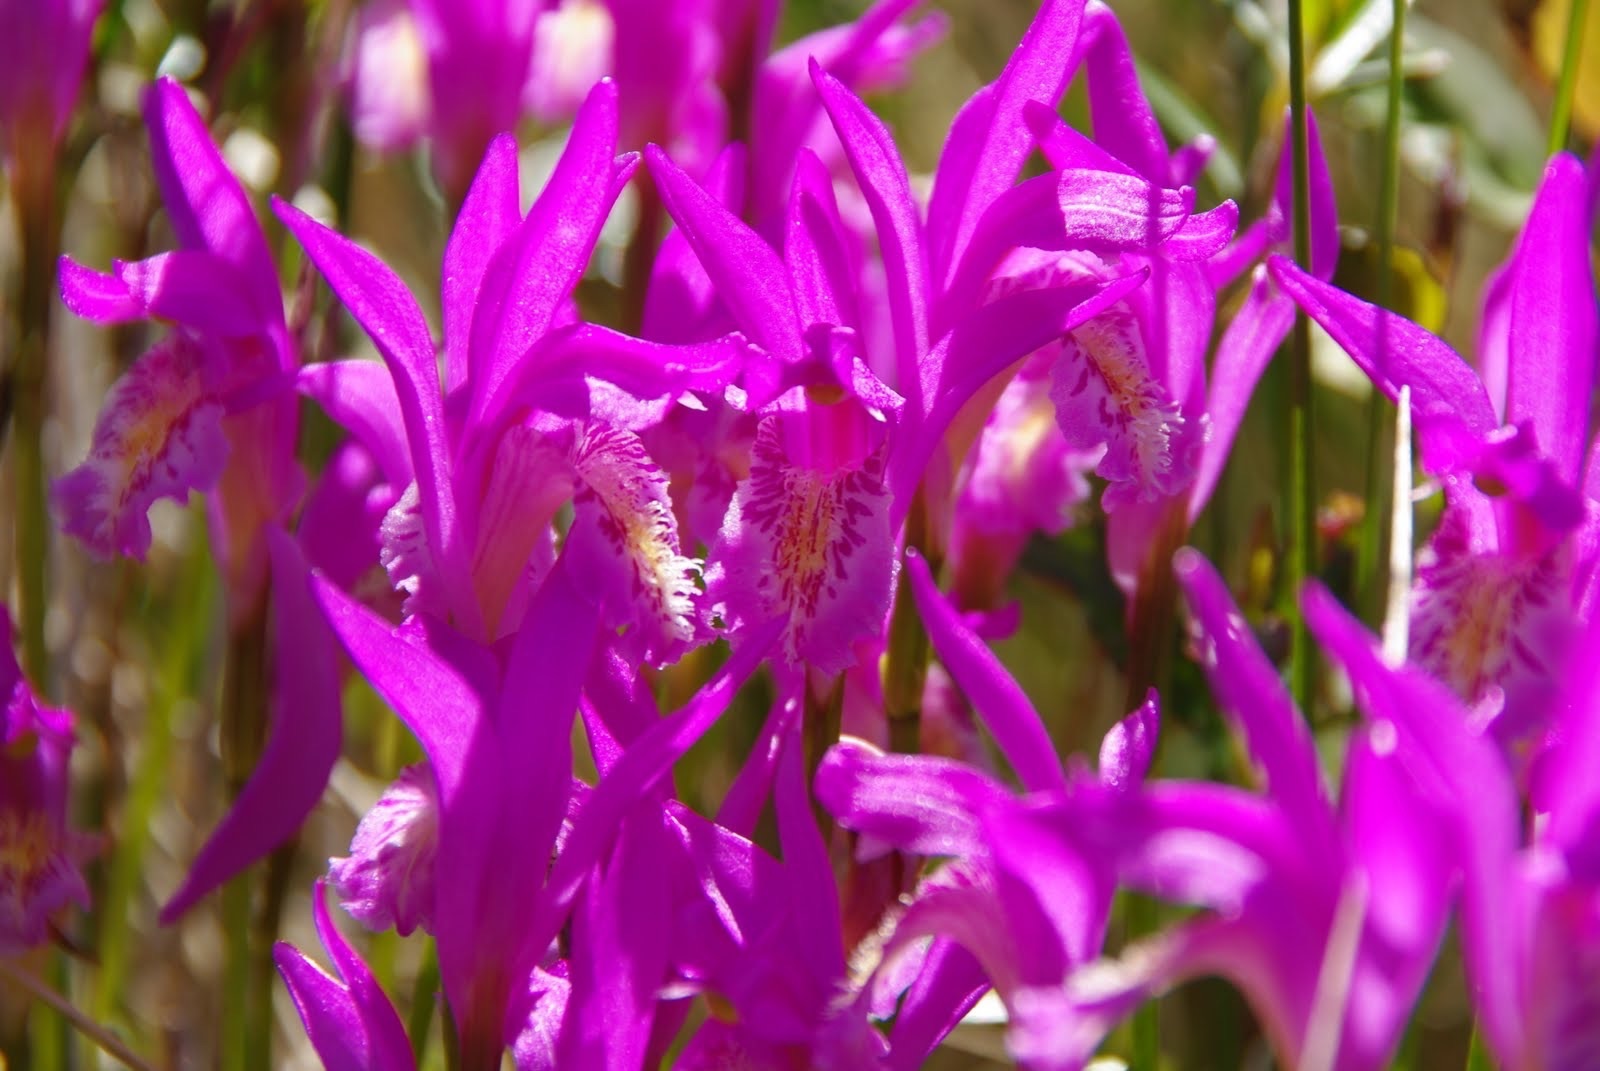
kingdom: Plantae
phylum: Tracheophyta
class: Liliopsida
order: Asparagales
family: Orchidaceae
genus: Arethusa
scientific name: Arethusa bulbosa
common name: Arethusa
